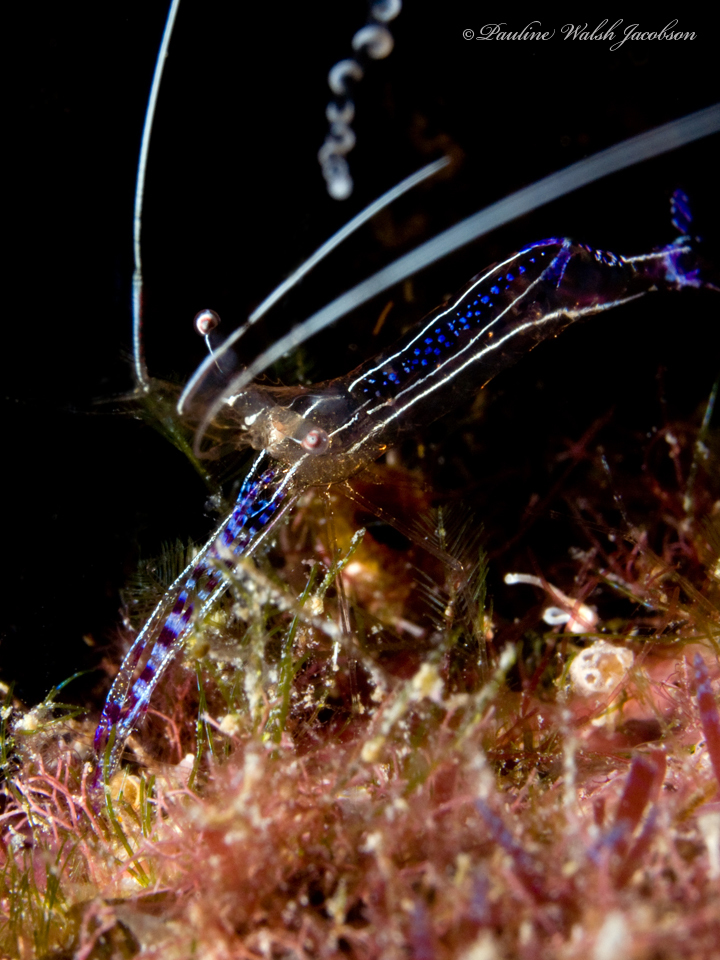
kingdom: Animalia
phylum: Arthropoda
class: Malacostraca
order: Decapoda
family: Palaemonidae
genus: Ancylomenes
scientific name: Ancylomenes pedersoni
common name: Pederson's cleaning shrimp
